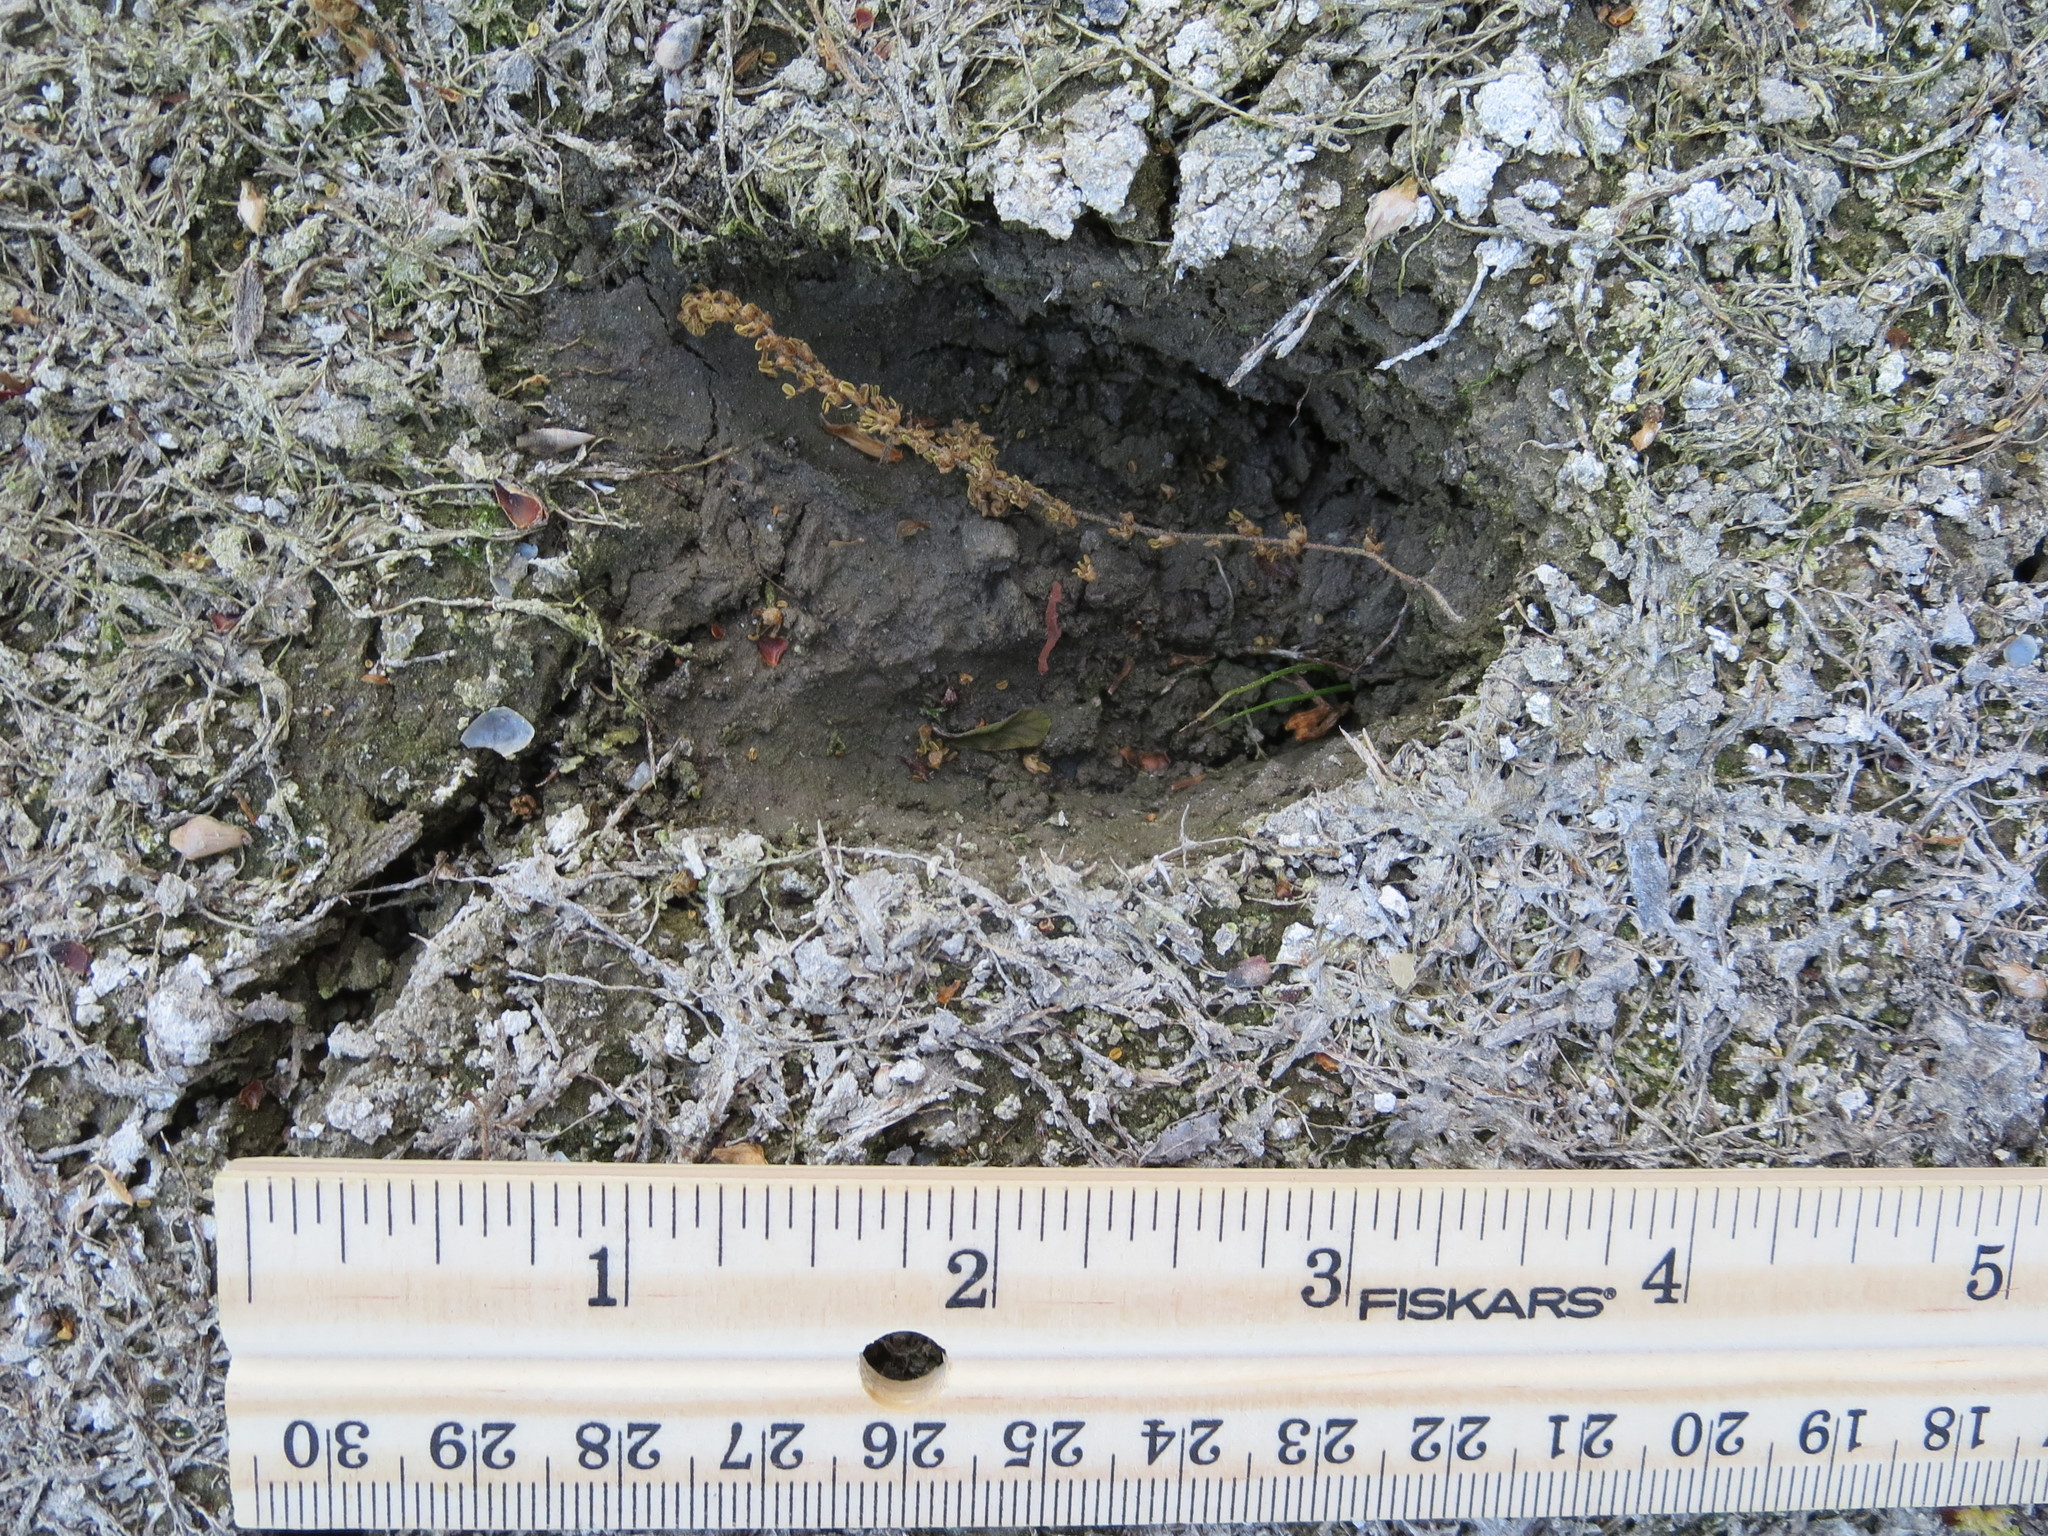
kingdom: Animalia
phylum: Chordata
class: Mammalia
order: Artiodactyla
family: Cervidae
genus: Odocoileus
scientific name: Odocoileus virginianus
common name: White-tailed deer
